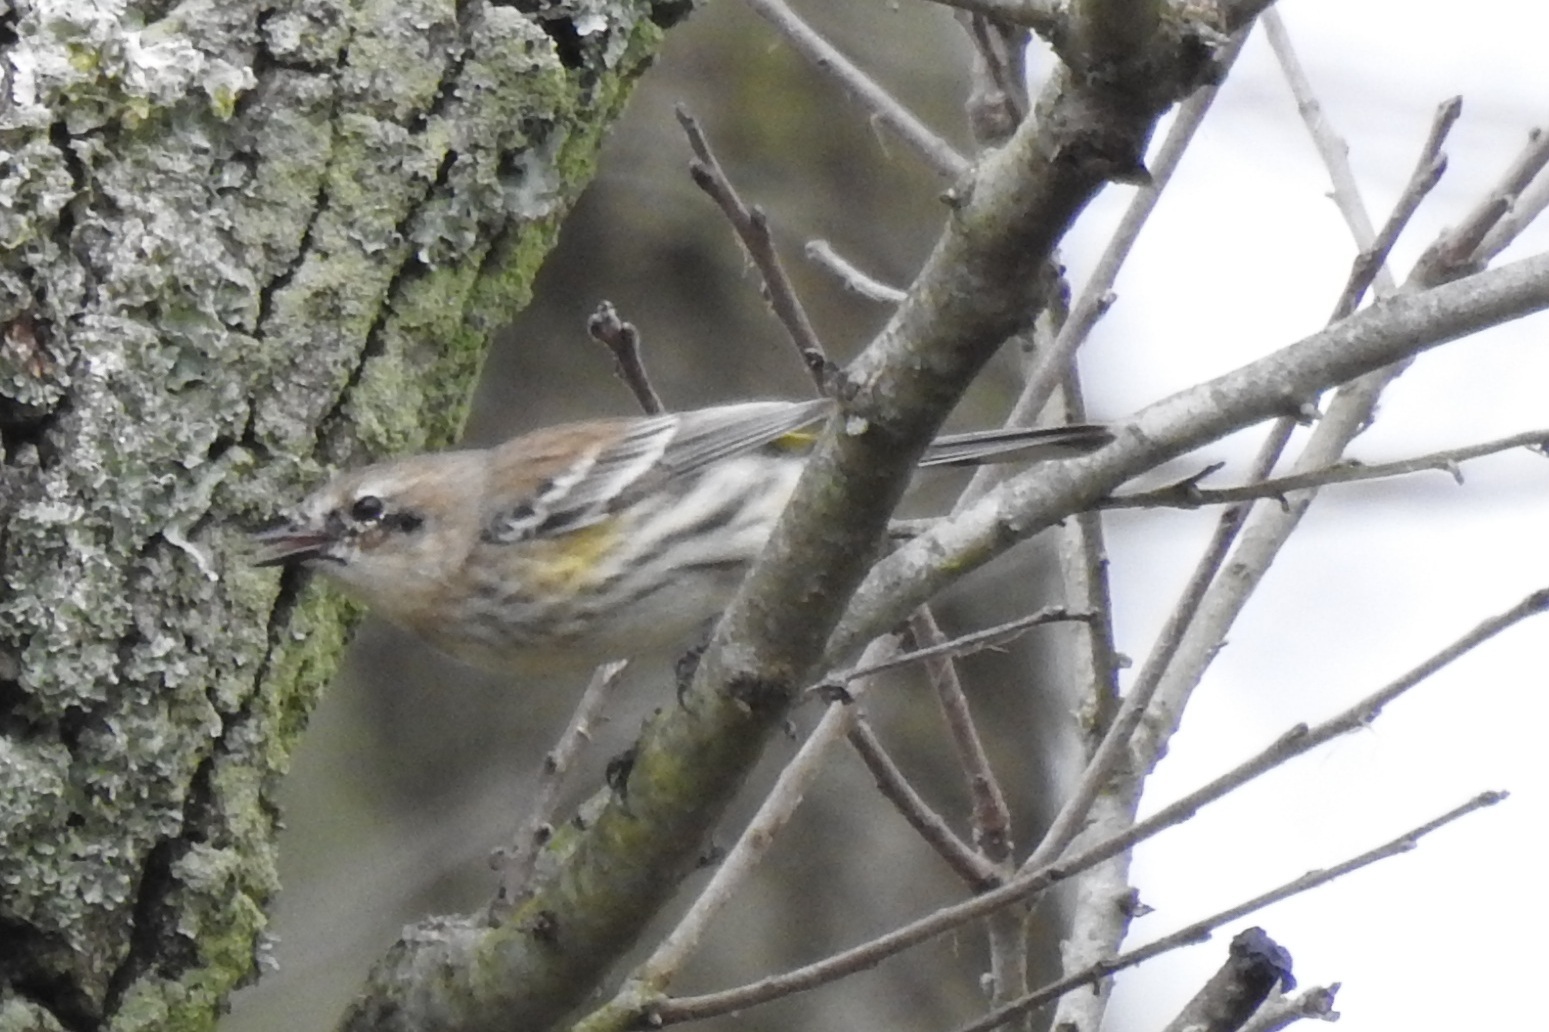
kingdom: Animalia
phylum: Chordata
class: Aves
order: Passeriformes
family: Parulidae
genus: Setophaga
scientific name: Setophaga coronata
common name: Myrtle warbler
